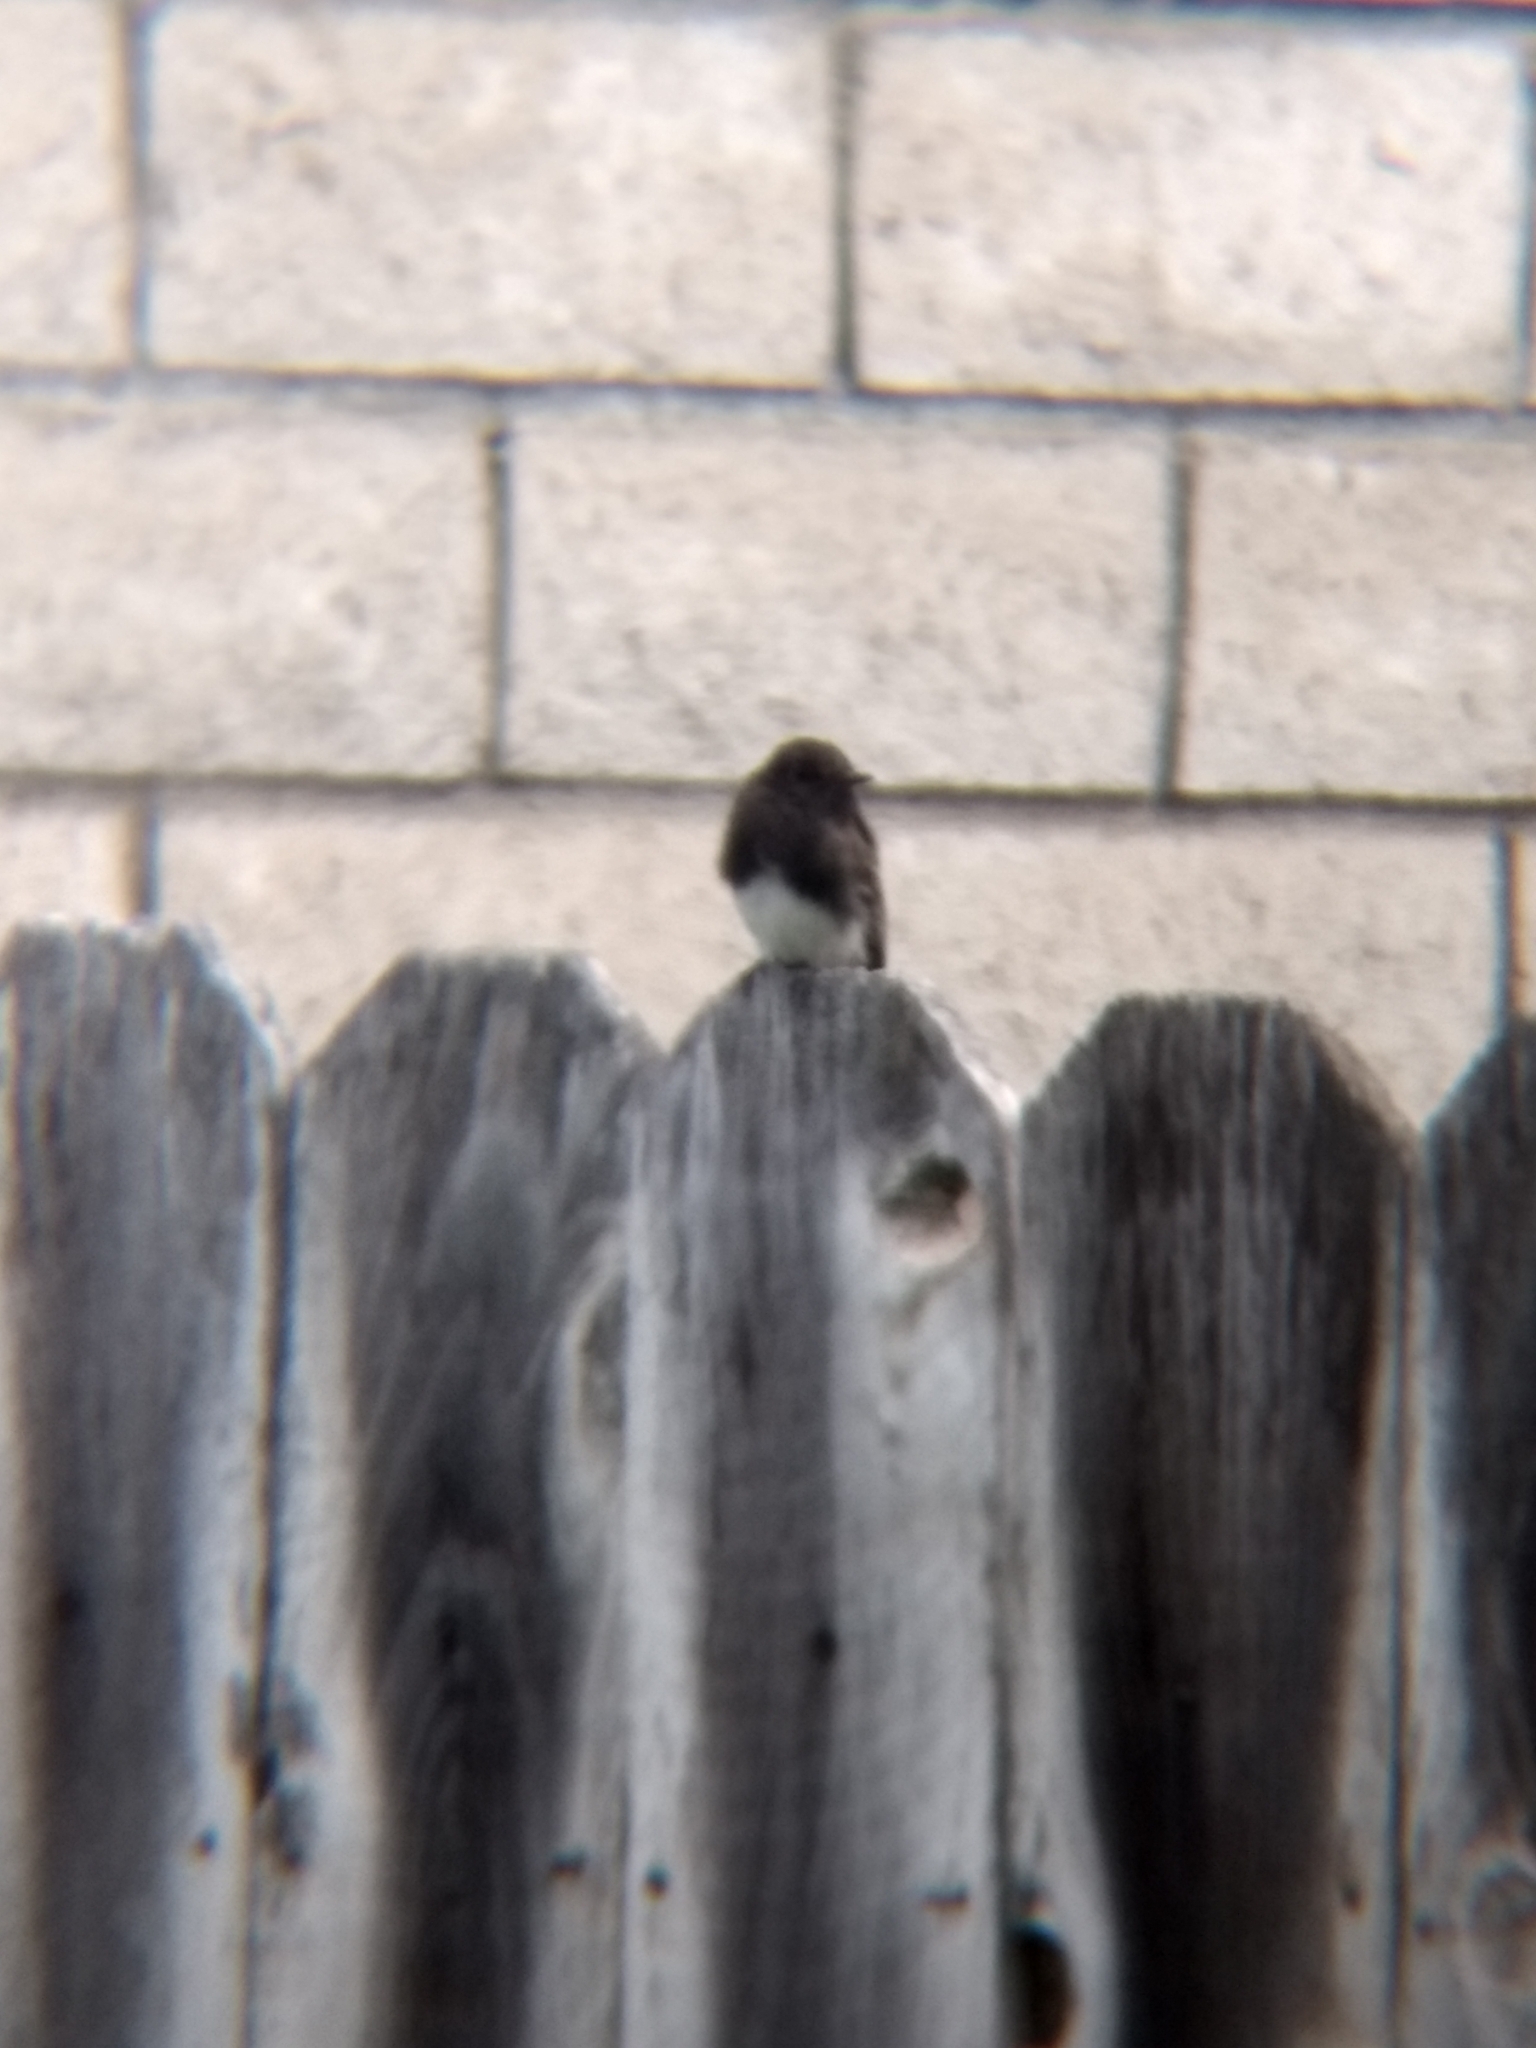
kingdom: Animalia
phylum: Chordata
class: Aves
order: Passeriformes
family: Tyrannidae
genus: Sayornis
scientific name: Sayornis nigricans
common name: Black phoebe
